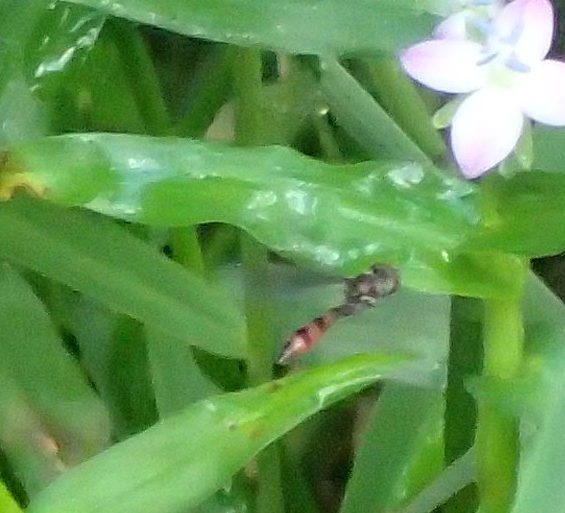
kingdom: Animalia
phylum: Arthropoda
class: Insecta
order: Diptera
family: Syrphidae
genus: Ocyptamus
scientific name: Ocyptamus fuscipennis
